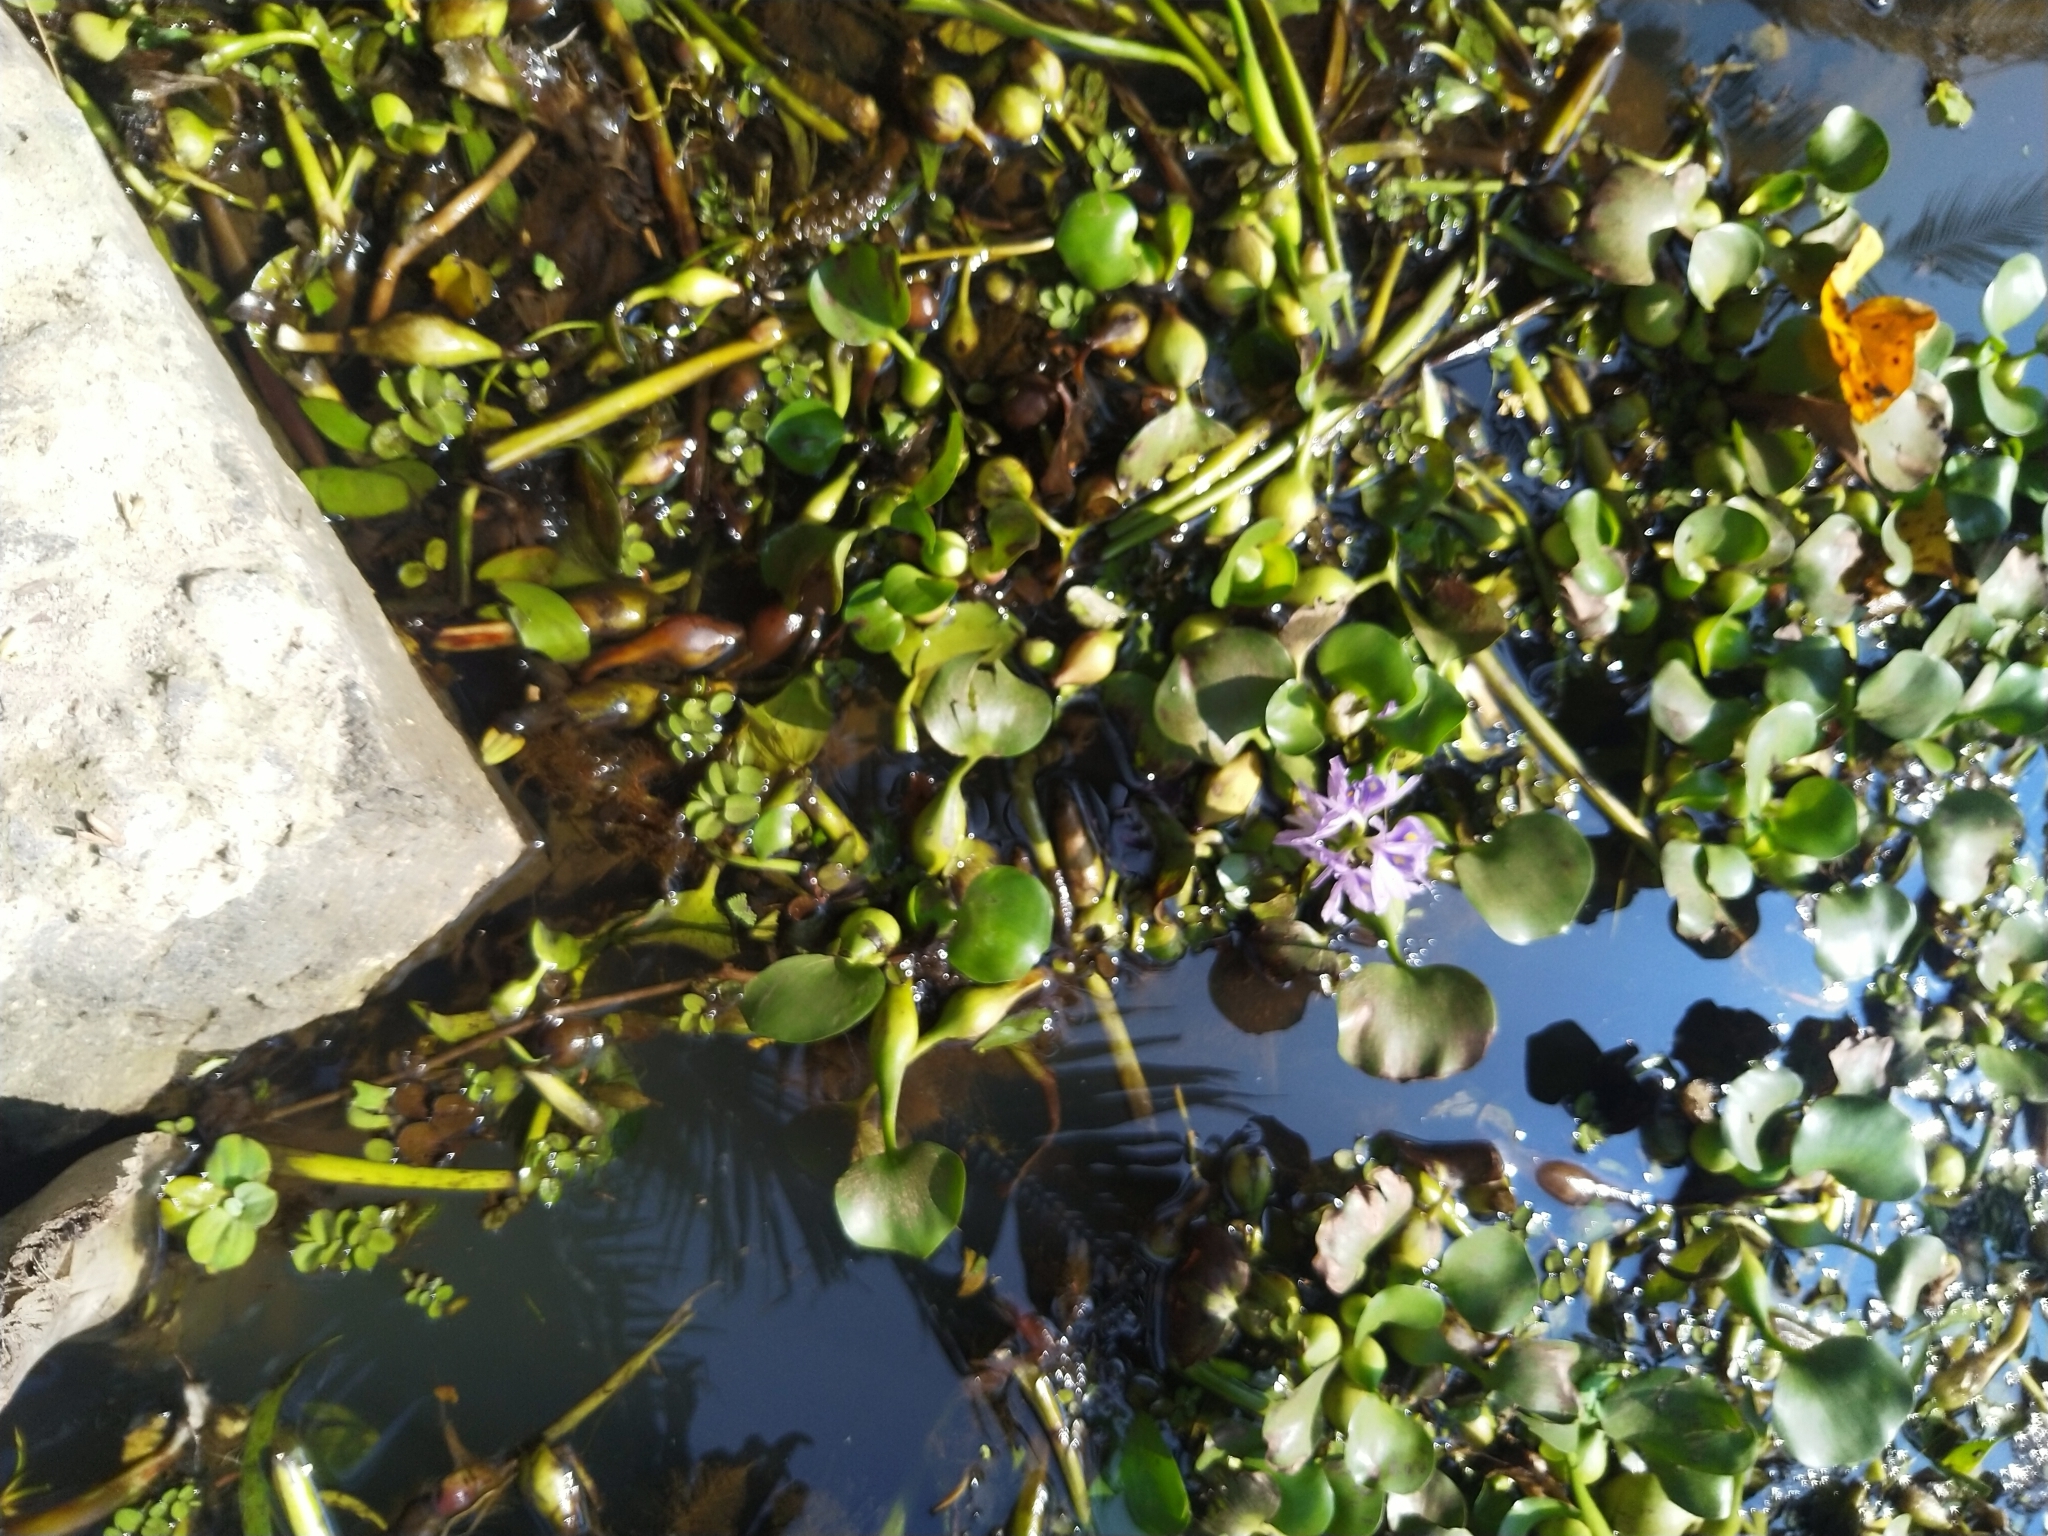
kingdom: Plantae
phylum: Tracheophyta
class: Liliopsida
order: Commelinales
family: Pontederiaceae
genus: Pontederia
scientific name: Pontederia crassipes
